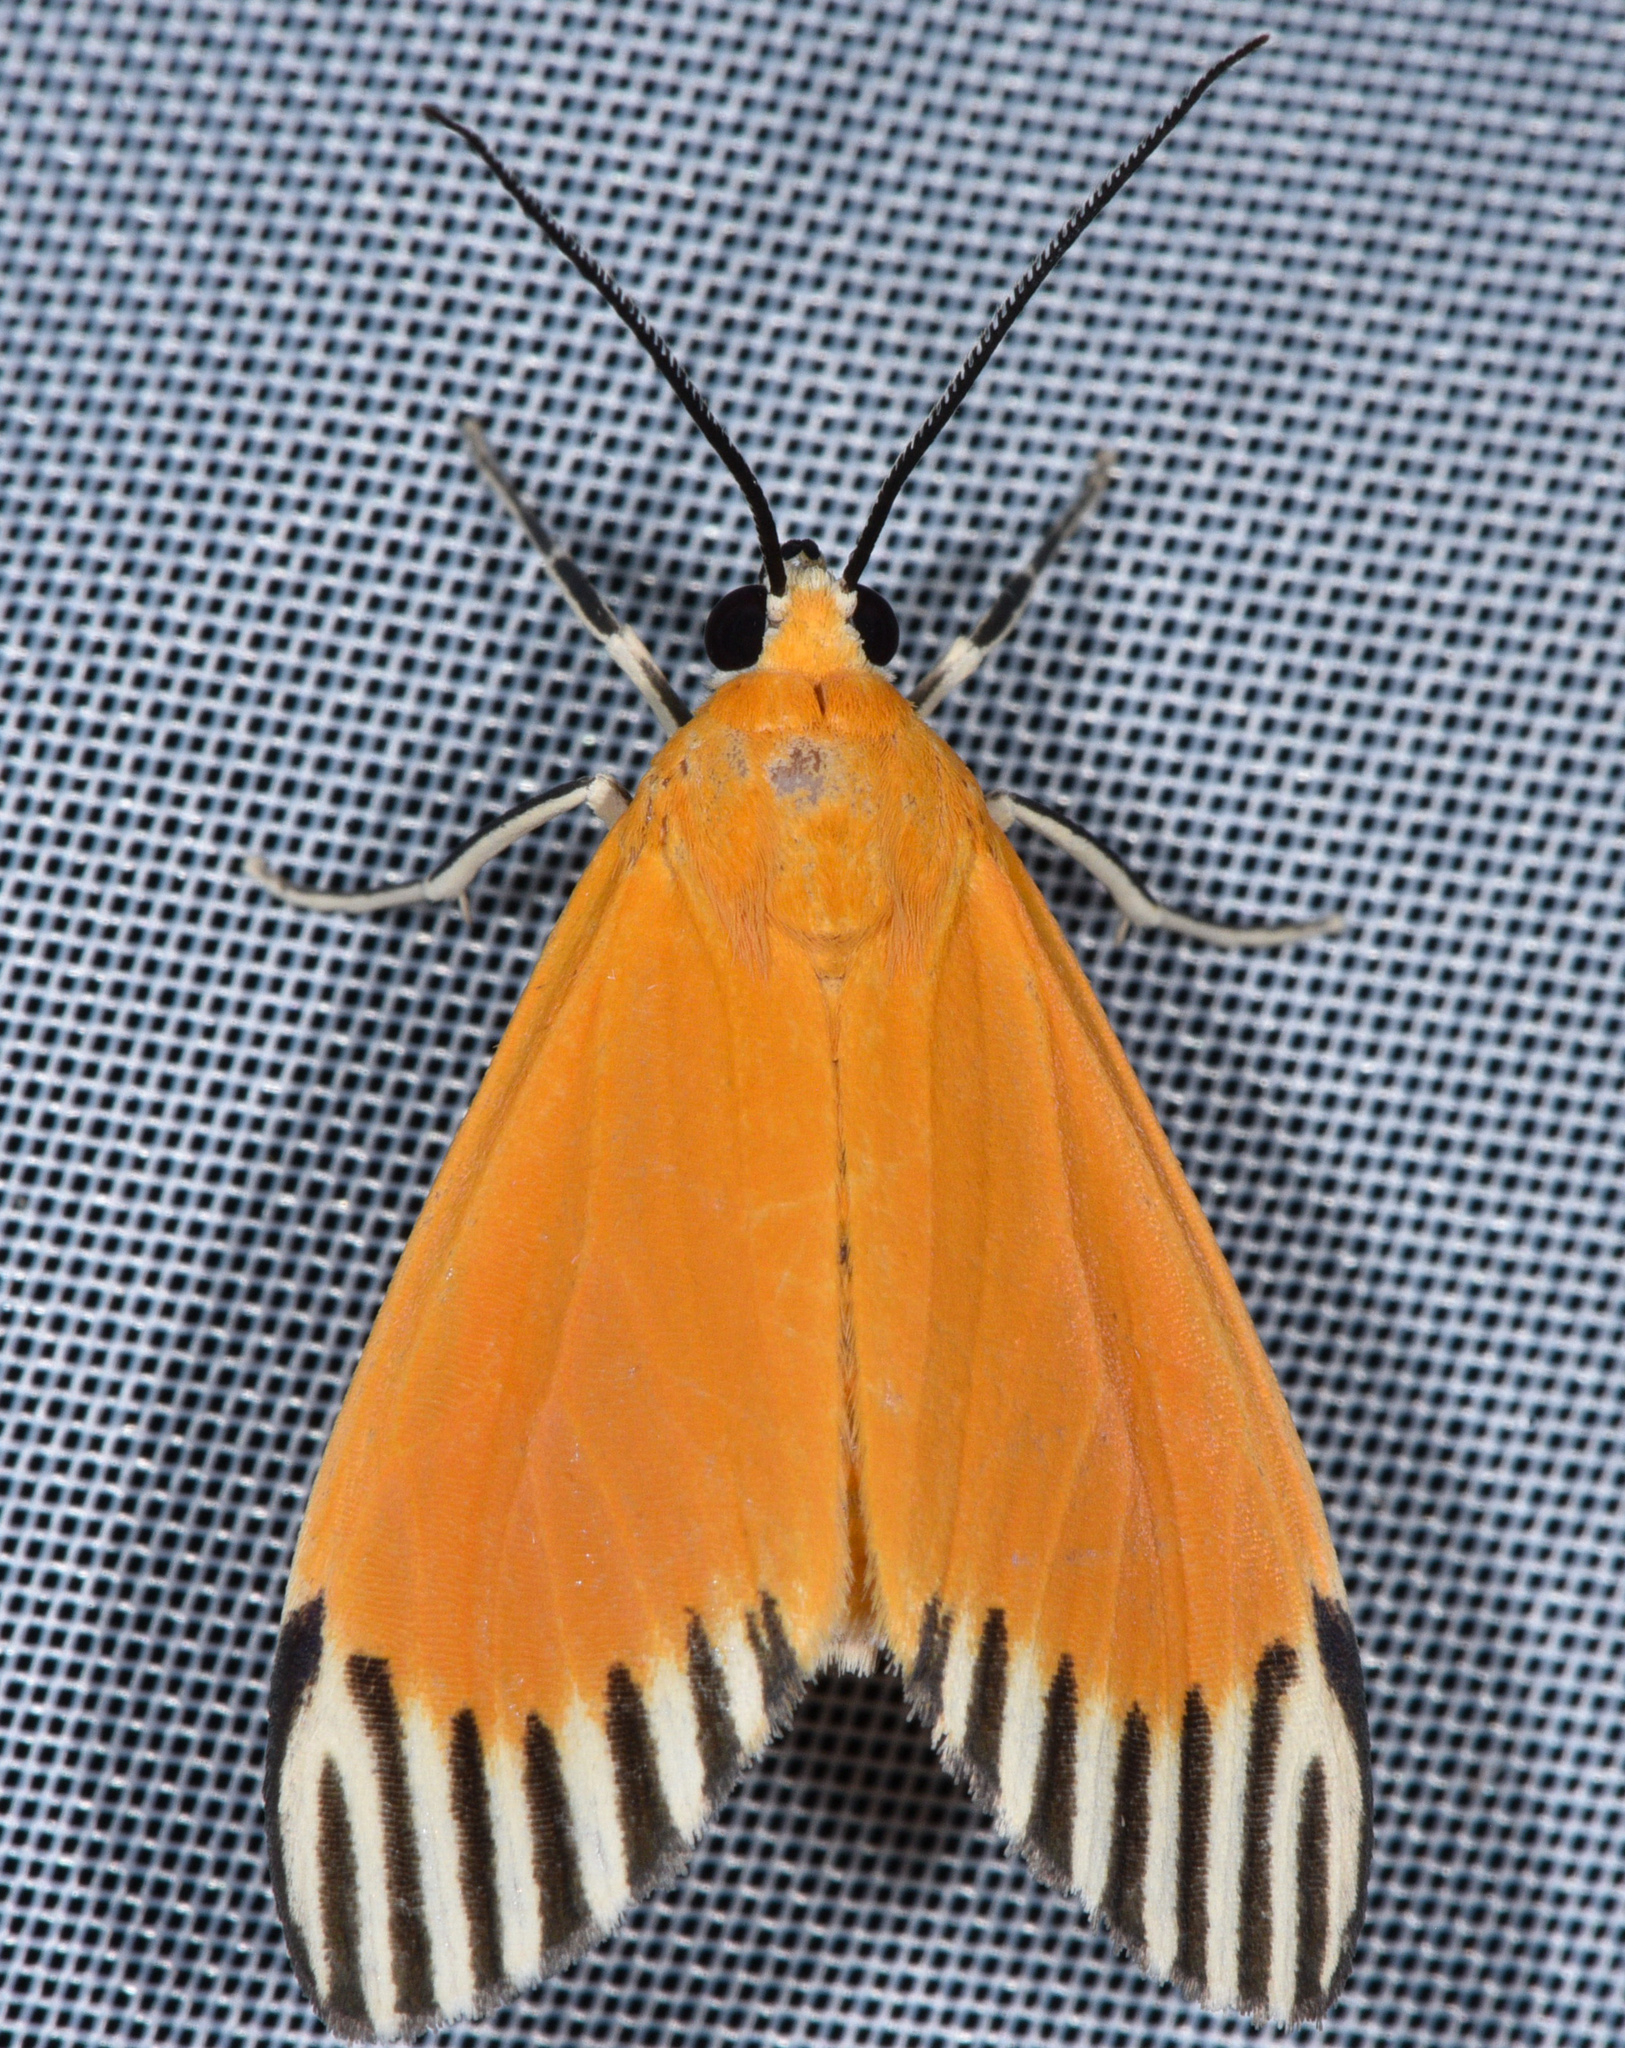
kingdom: Animalia
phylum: Arthropoda
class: Insecta
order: Lepidoptera
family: Erebidae
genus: Uranophora
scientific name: Uranophora walkeri
